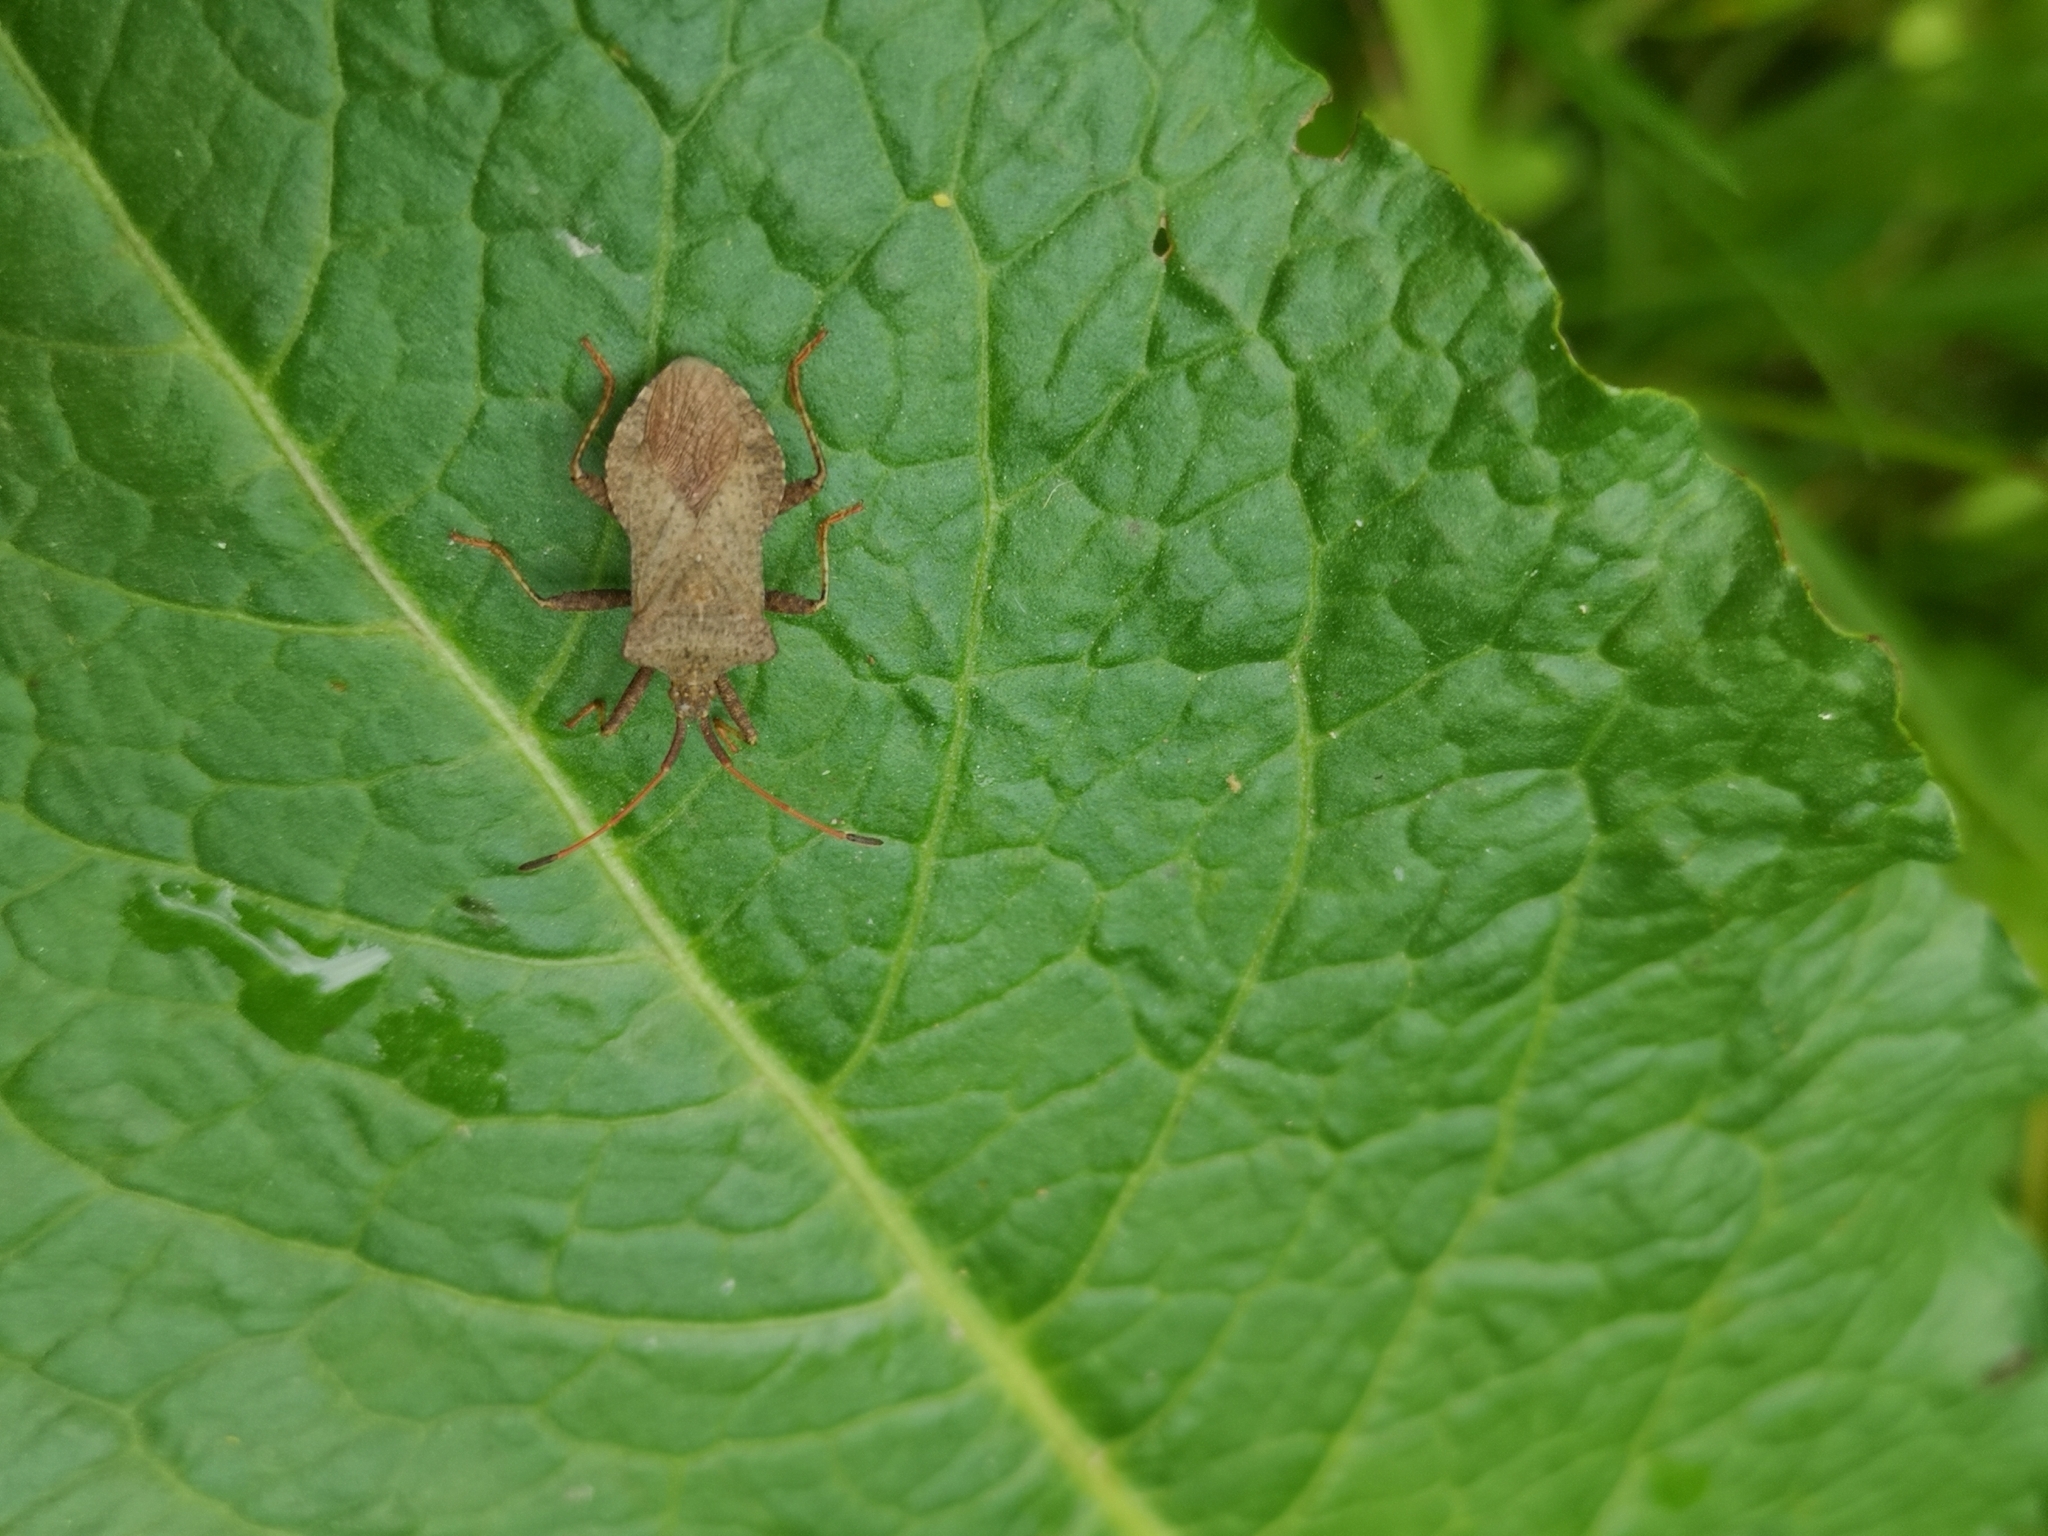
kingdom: Animalia
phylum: Arthropoda
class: Insecta
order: Hemiptera
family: Coreidae
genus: Coreus
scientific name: Coreus marginatus
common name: Dock bug
